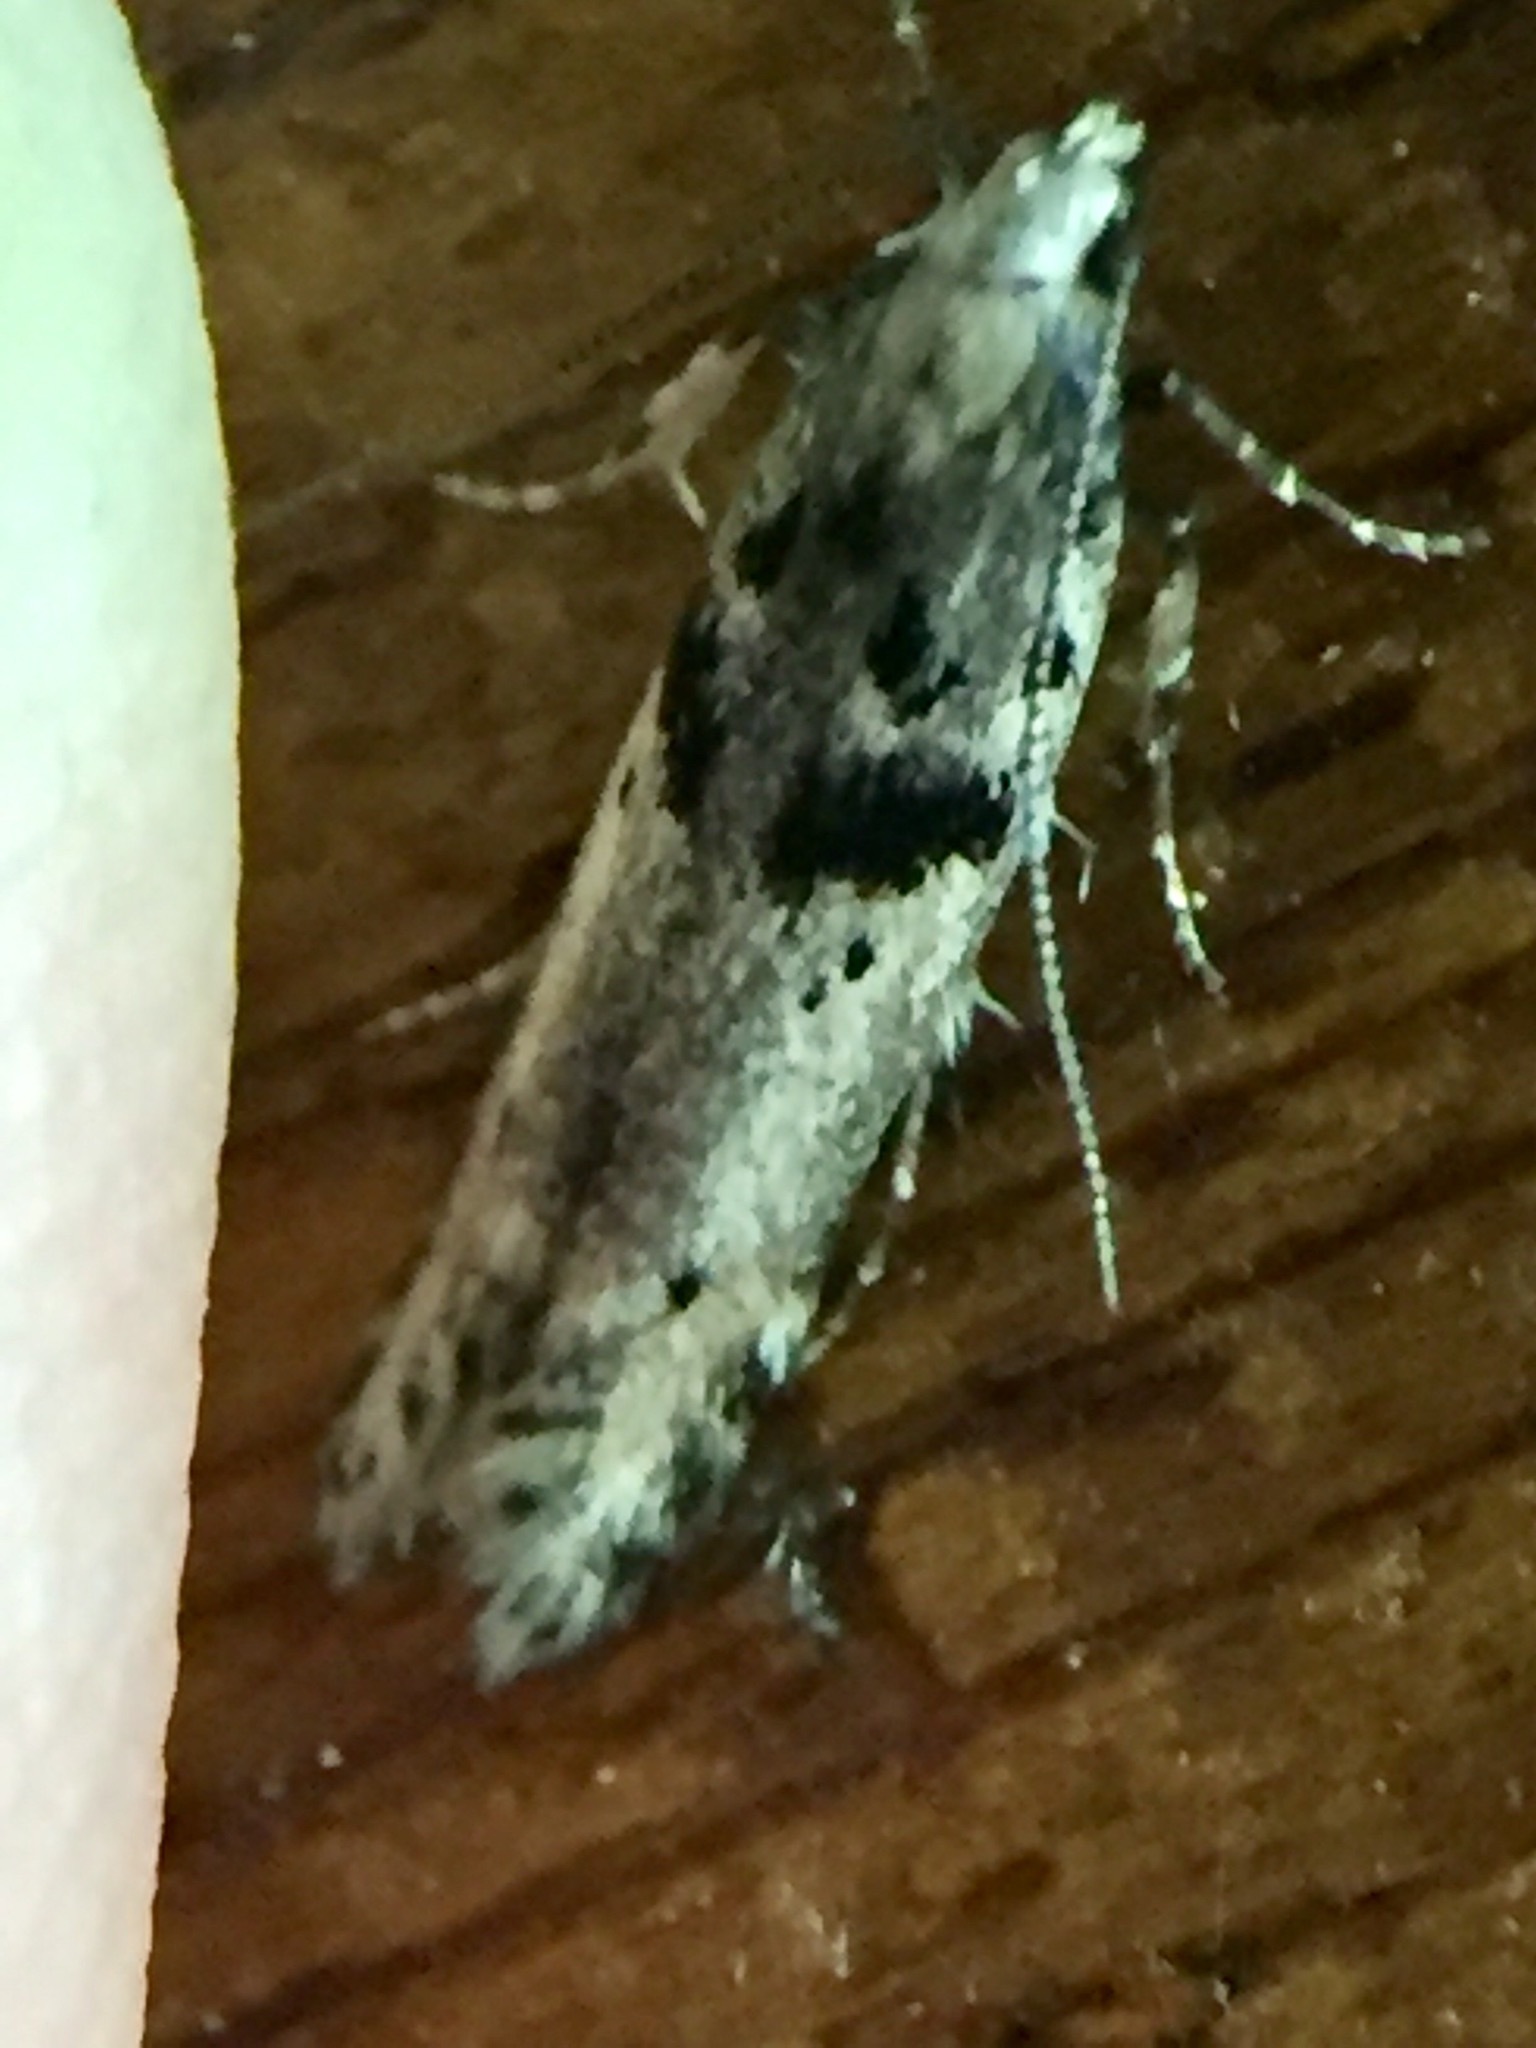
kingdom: Animalia
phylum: Arthropoda
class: Insecta
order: Lepidoptera
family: Gelechiidae
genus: Aristotelia
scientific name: Aristotelia paradesma
